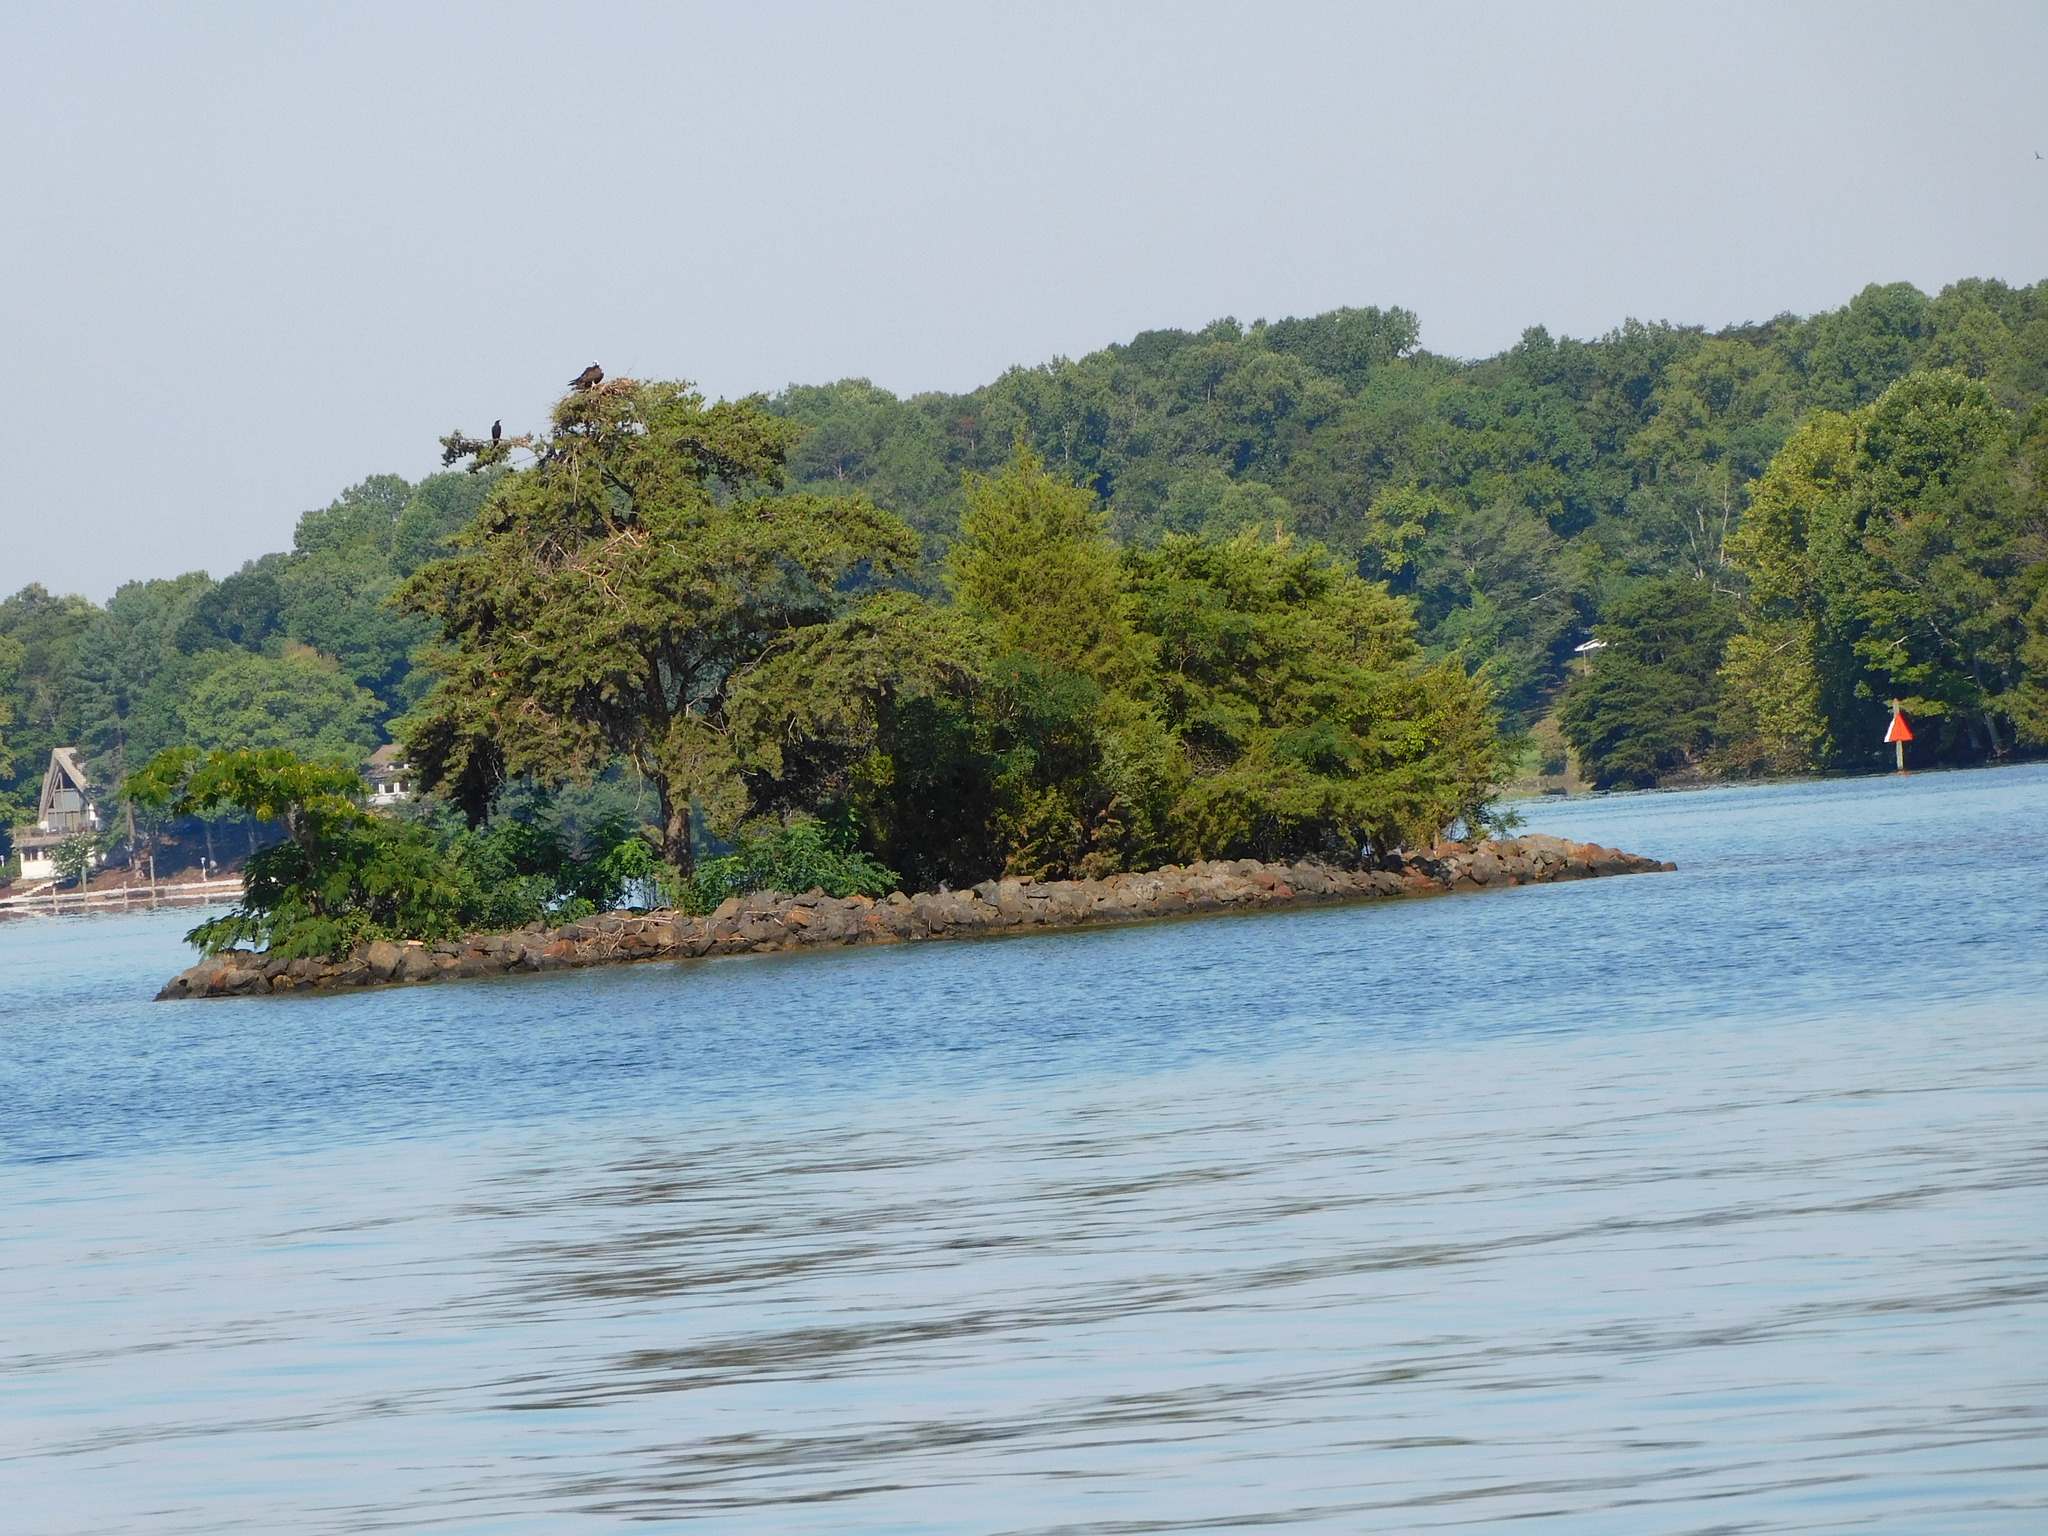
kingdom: Animalia
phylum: Chordata
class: Aves
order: Accipitriformes
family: Pandionidae
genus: Pandion
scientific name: Pandion haliaetus
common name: Osprey
